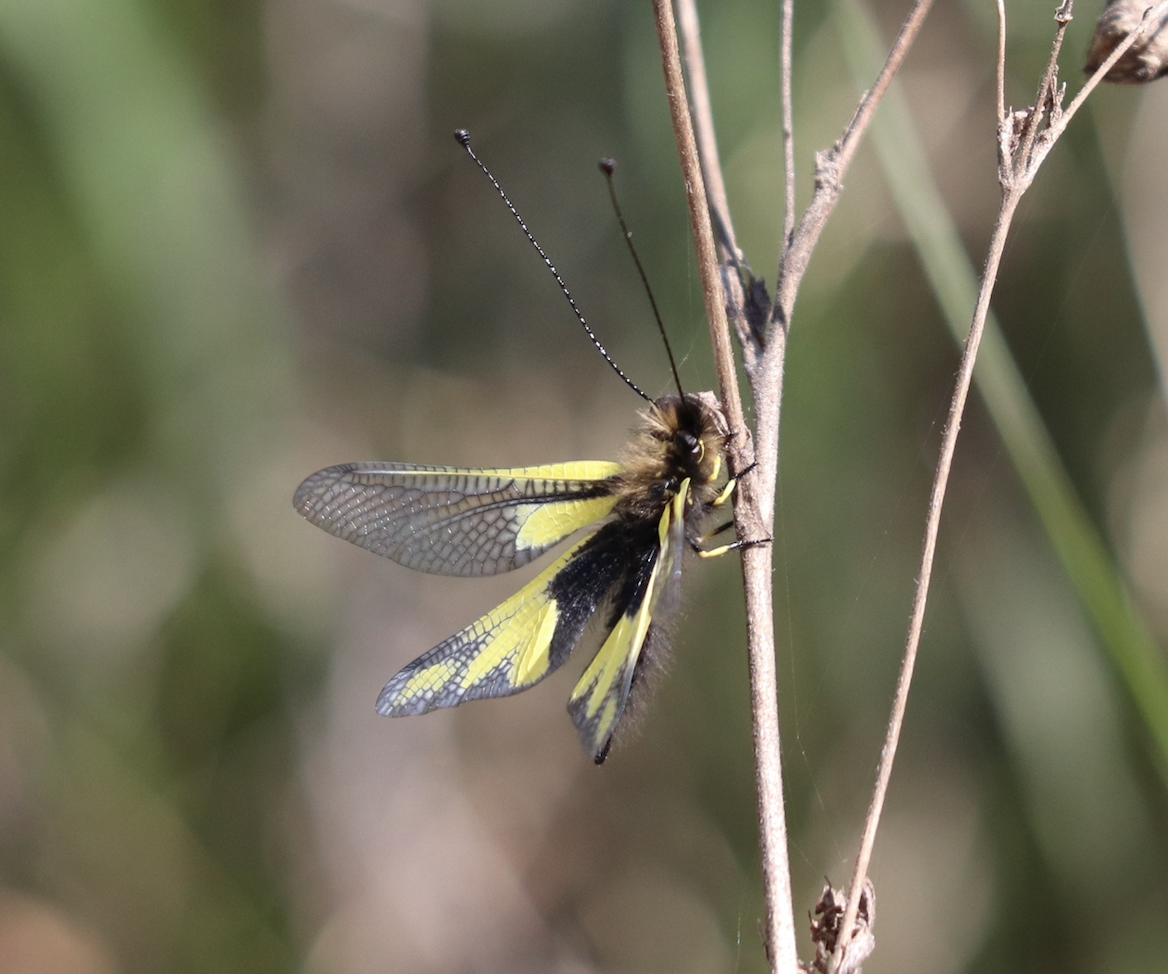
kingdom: Animalia
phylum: Arthropoda
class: Insecta
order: Neuroptera
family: Ascalaphidae
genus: Libelloides
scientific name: Libelloides coccajus
